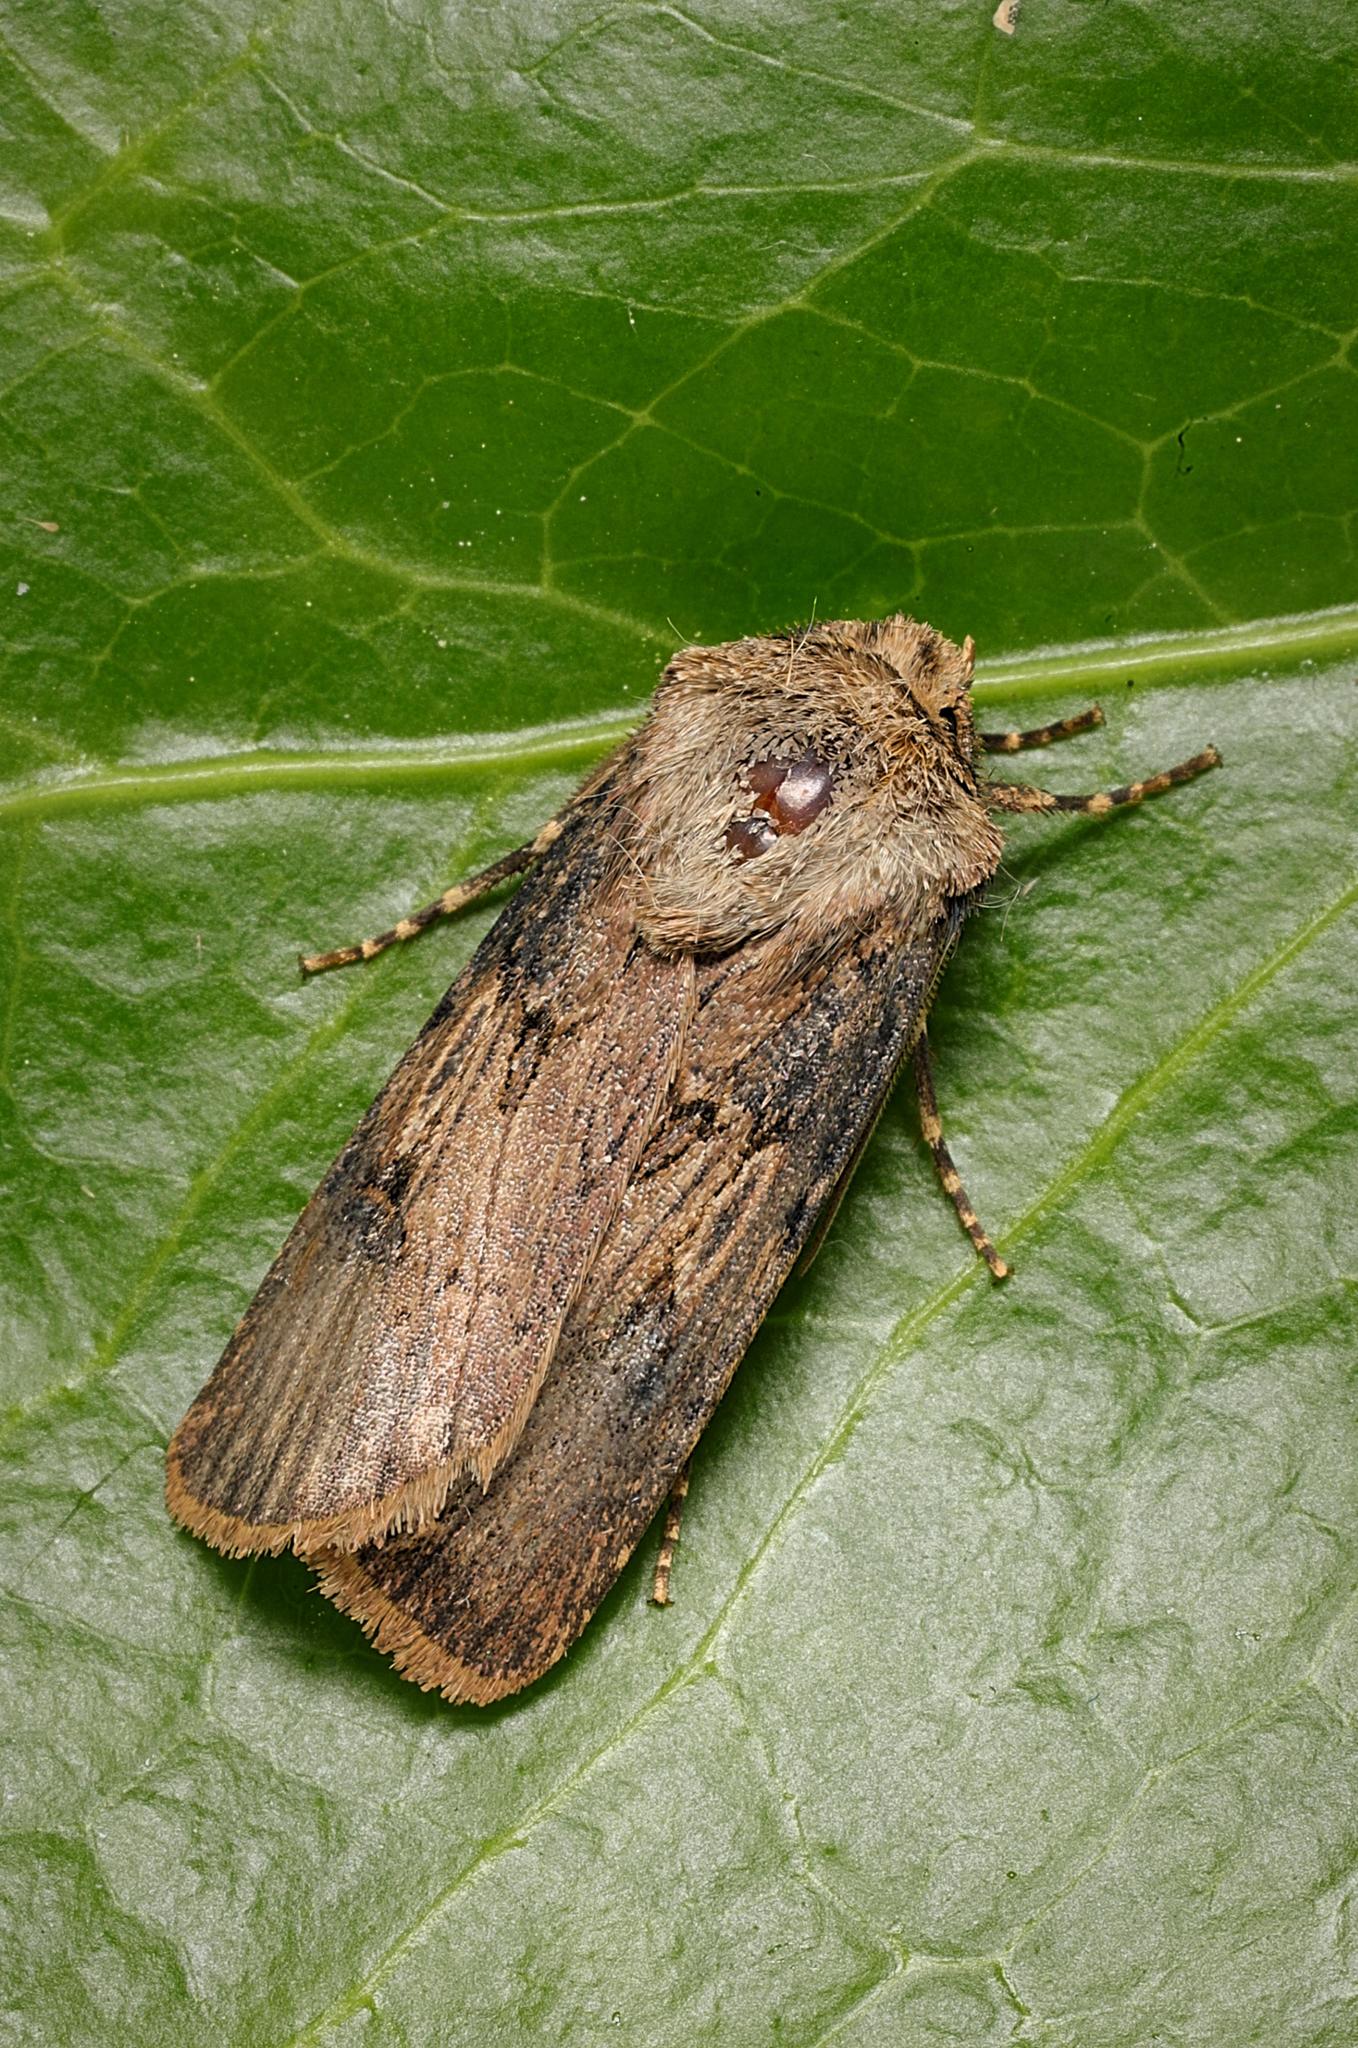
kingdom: Animalia
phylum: Arthropoda
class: Insecta
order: Lepidoptera
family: Noctuidae
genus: Agrotis
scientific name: Agrotis puta
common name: Shuttle-shaped dart
